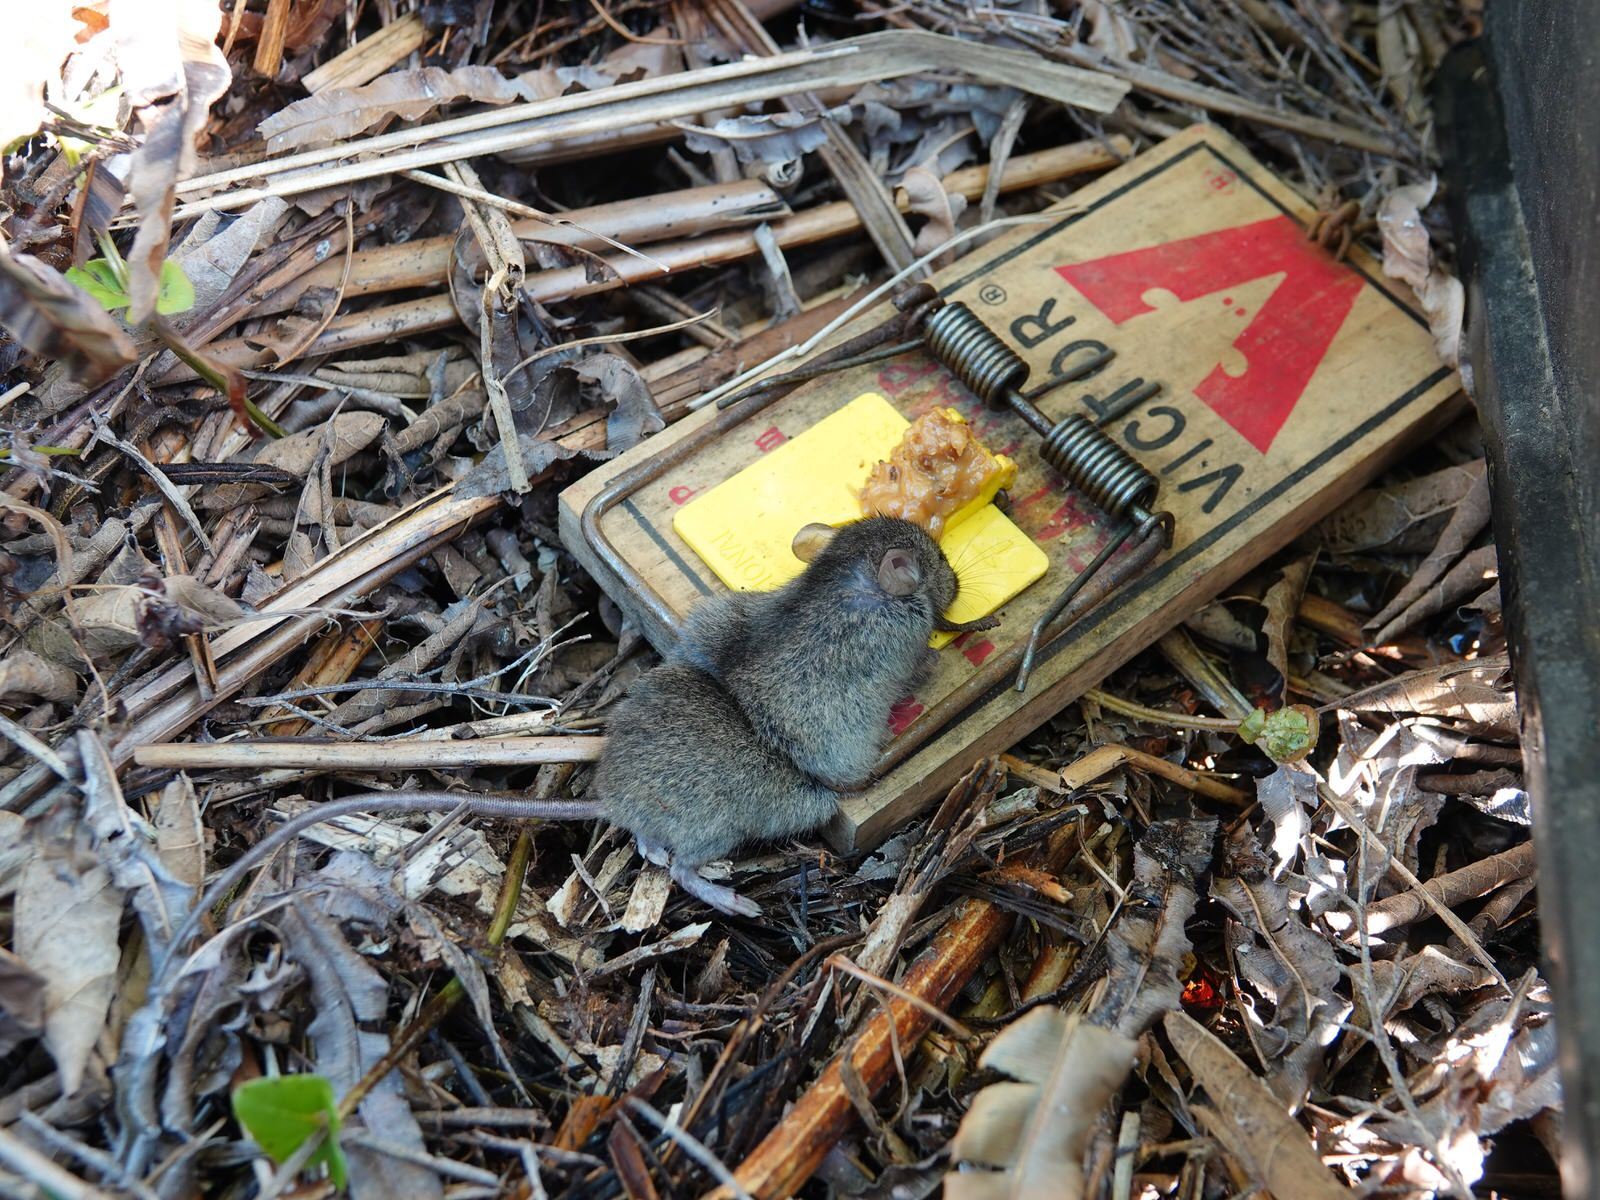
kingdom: Animalia
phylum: Chordata
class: Mammalia
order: Rodentia
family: Muridae
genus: Mus
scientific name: Mus musculus
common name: House mouse
